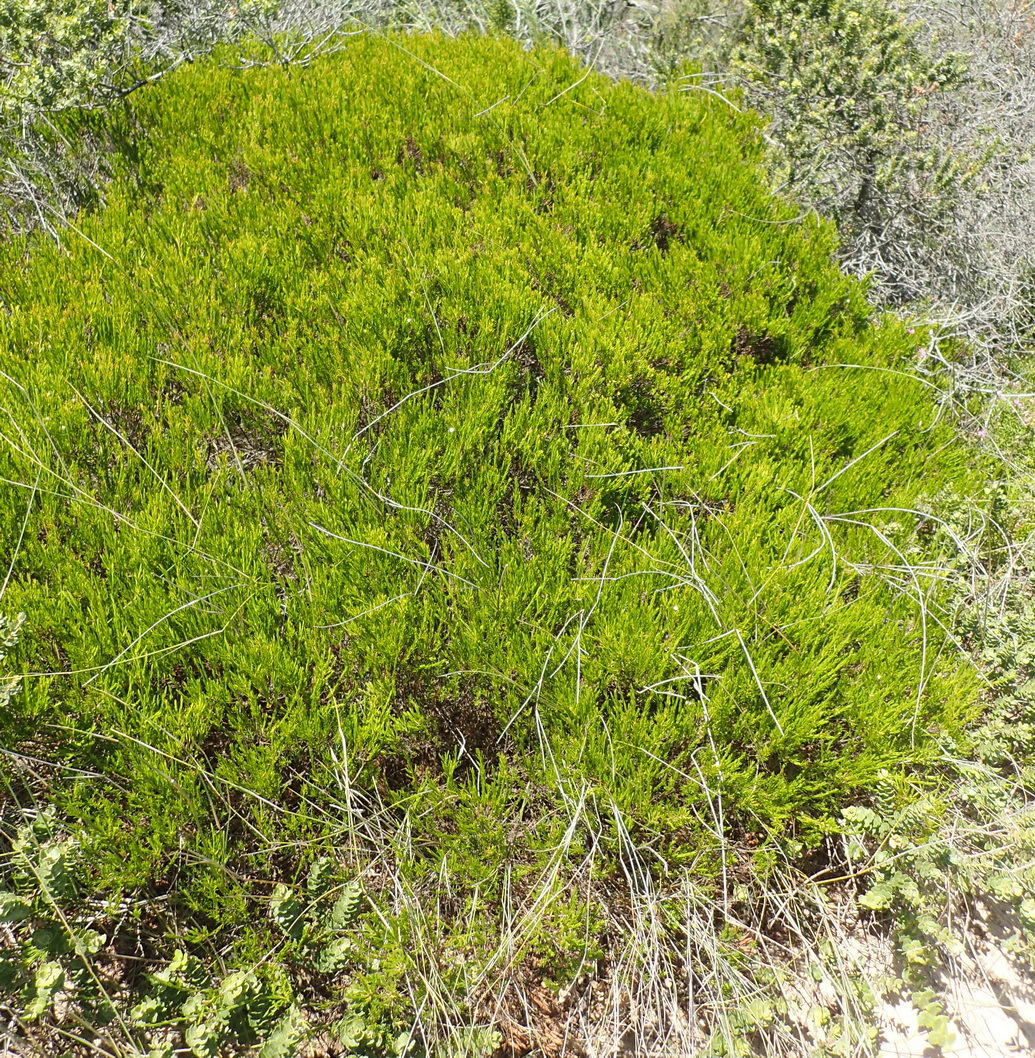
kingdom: Plantae
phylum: Tracheophyta
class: Magnoliopsida
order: Sapindales
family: Rutaceae
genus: Coleonema
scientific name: Coleonema pulchellum
